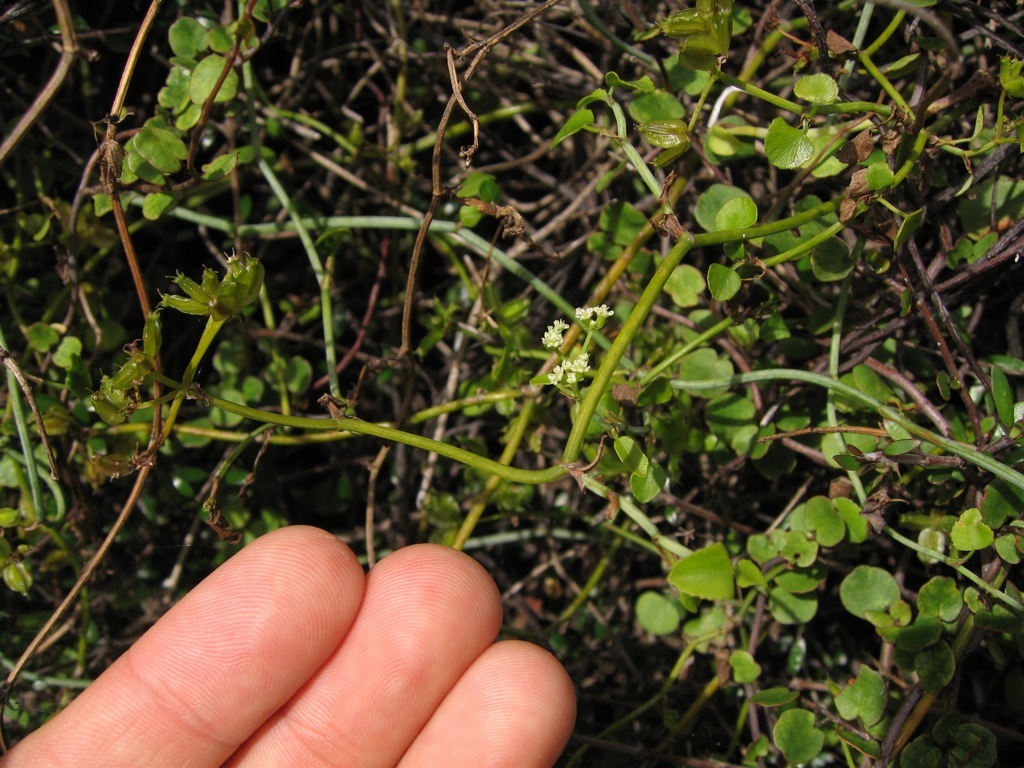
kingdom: Plantae
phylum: Tracheophyta
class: Magnoliopsida
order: Apiales
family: Apiaceae
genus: Scandia
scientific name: Scandia geniculata
